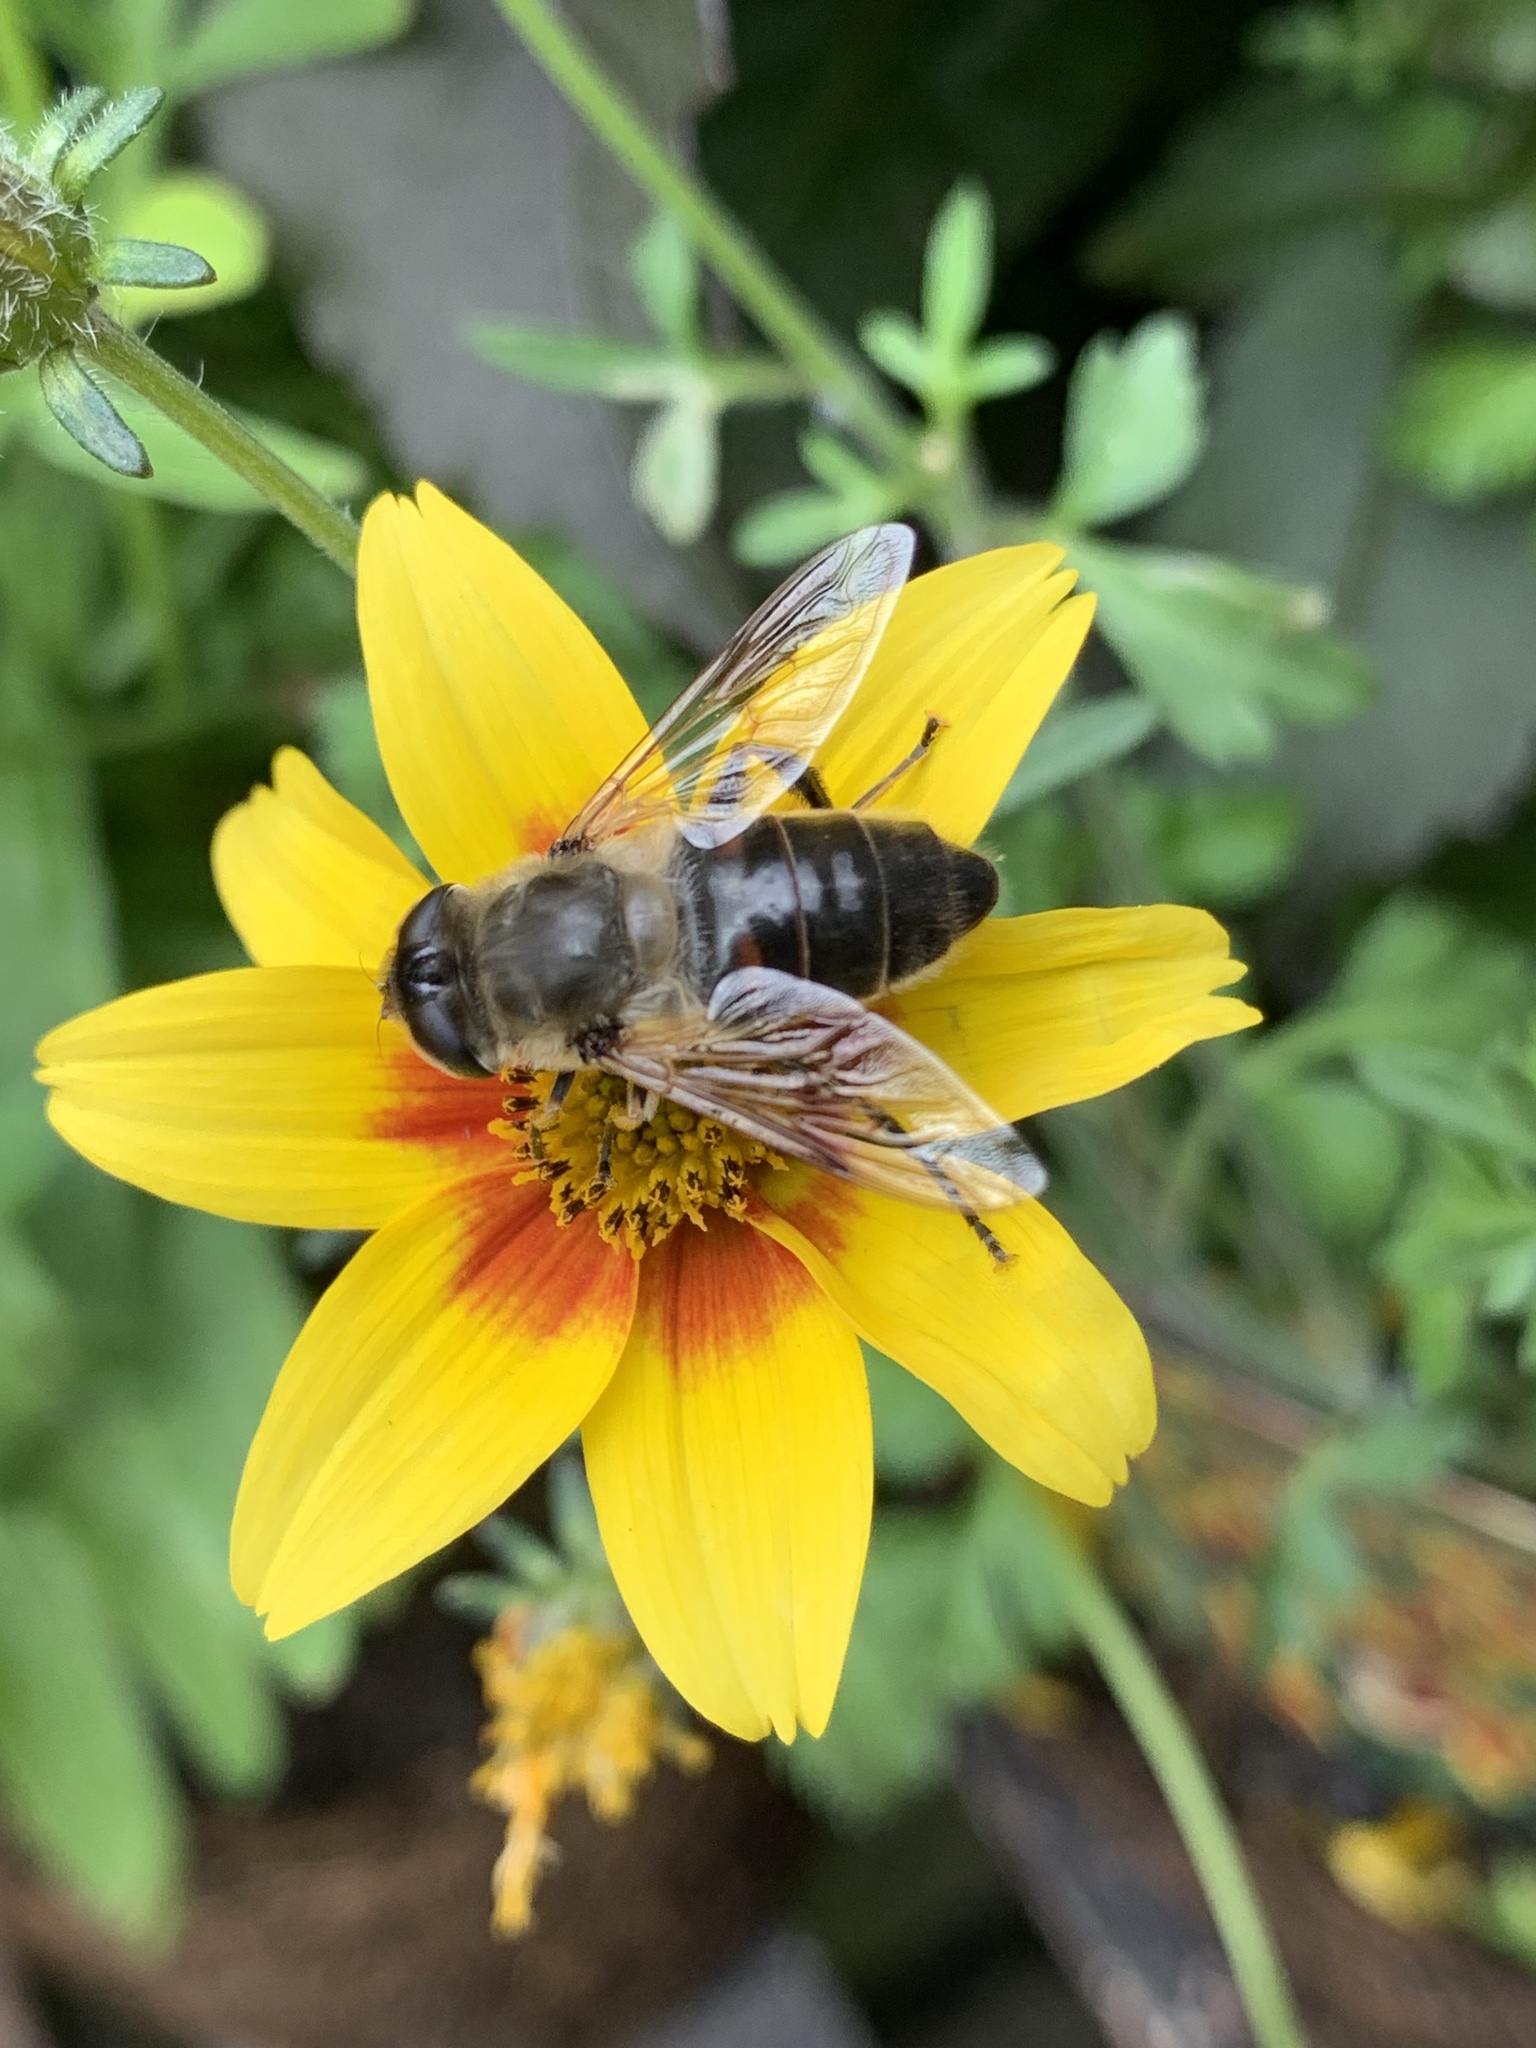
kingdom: Animalia
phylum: Arthropoda
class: Insecta
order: Diptera
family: Syrphidae
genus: Eristalis
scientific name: Eristalis tenax
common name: Drone fly
